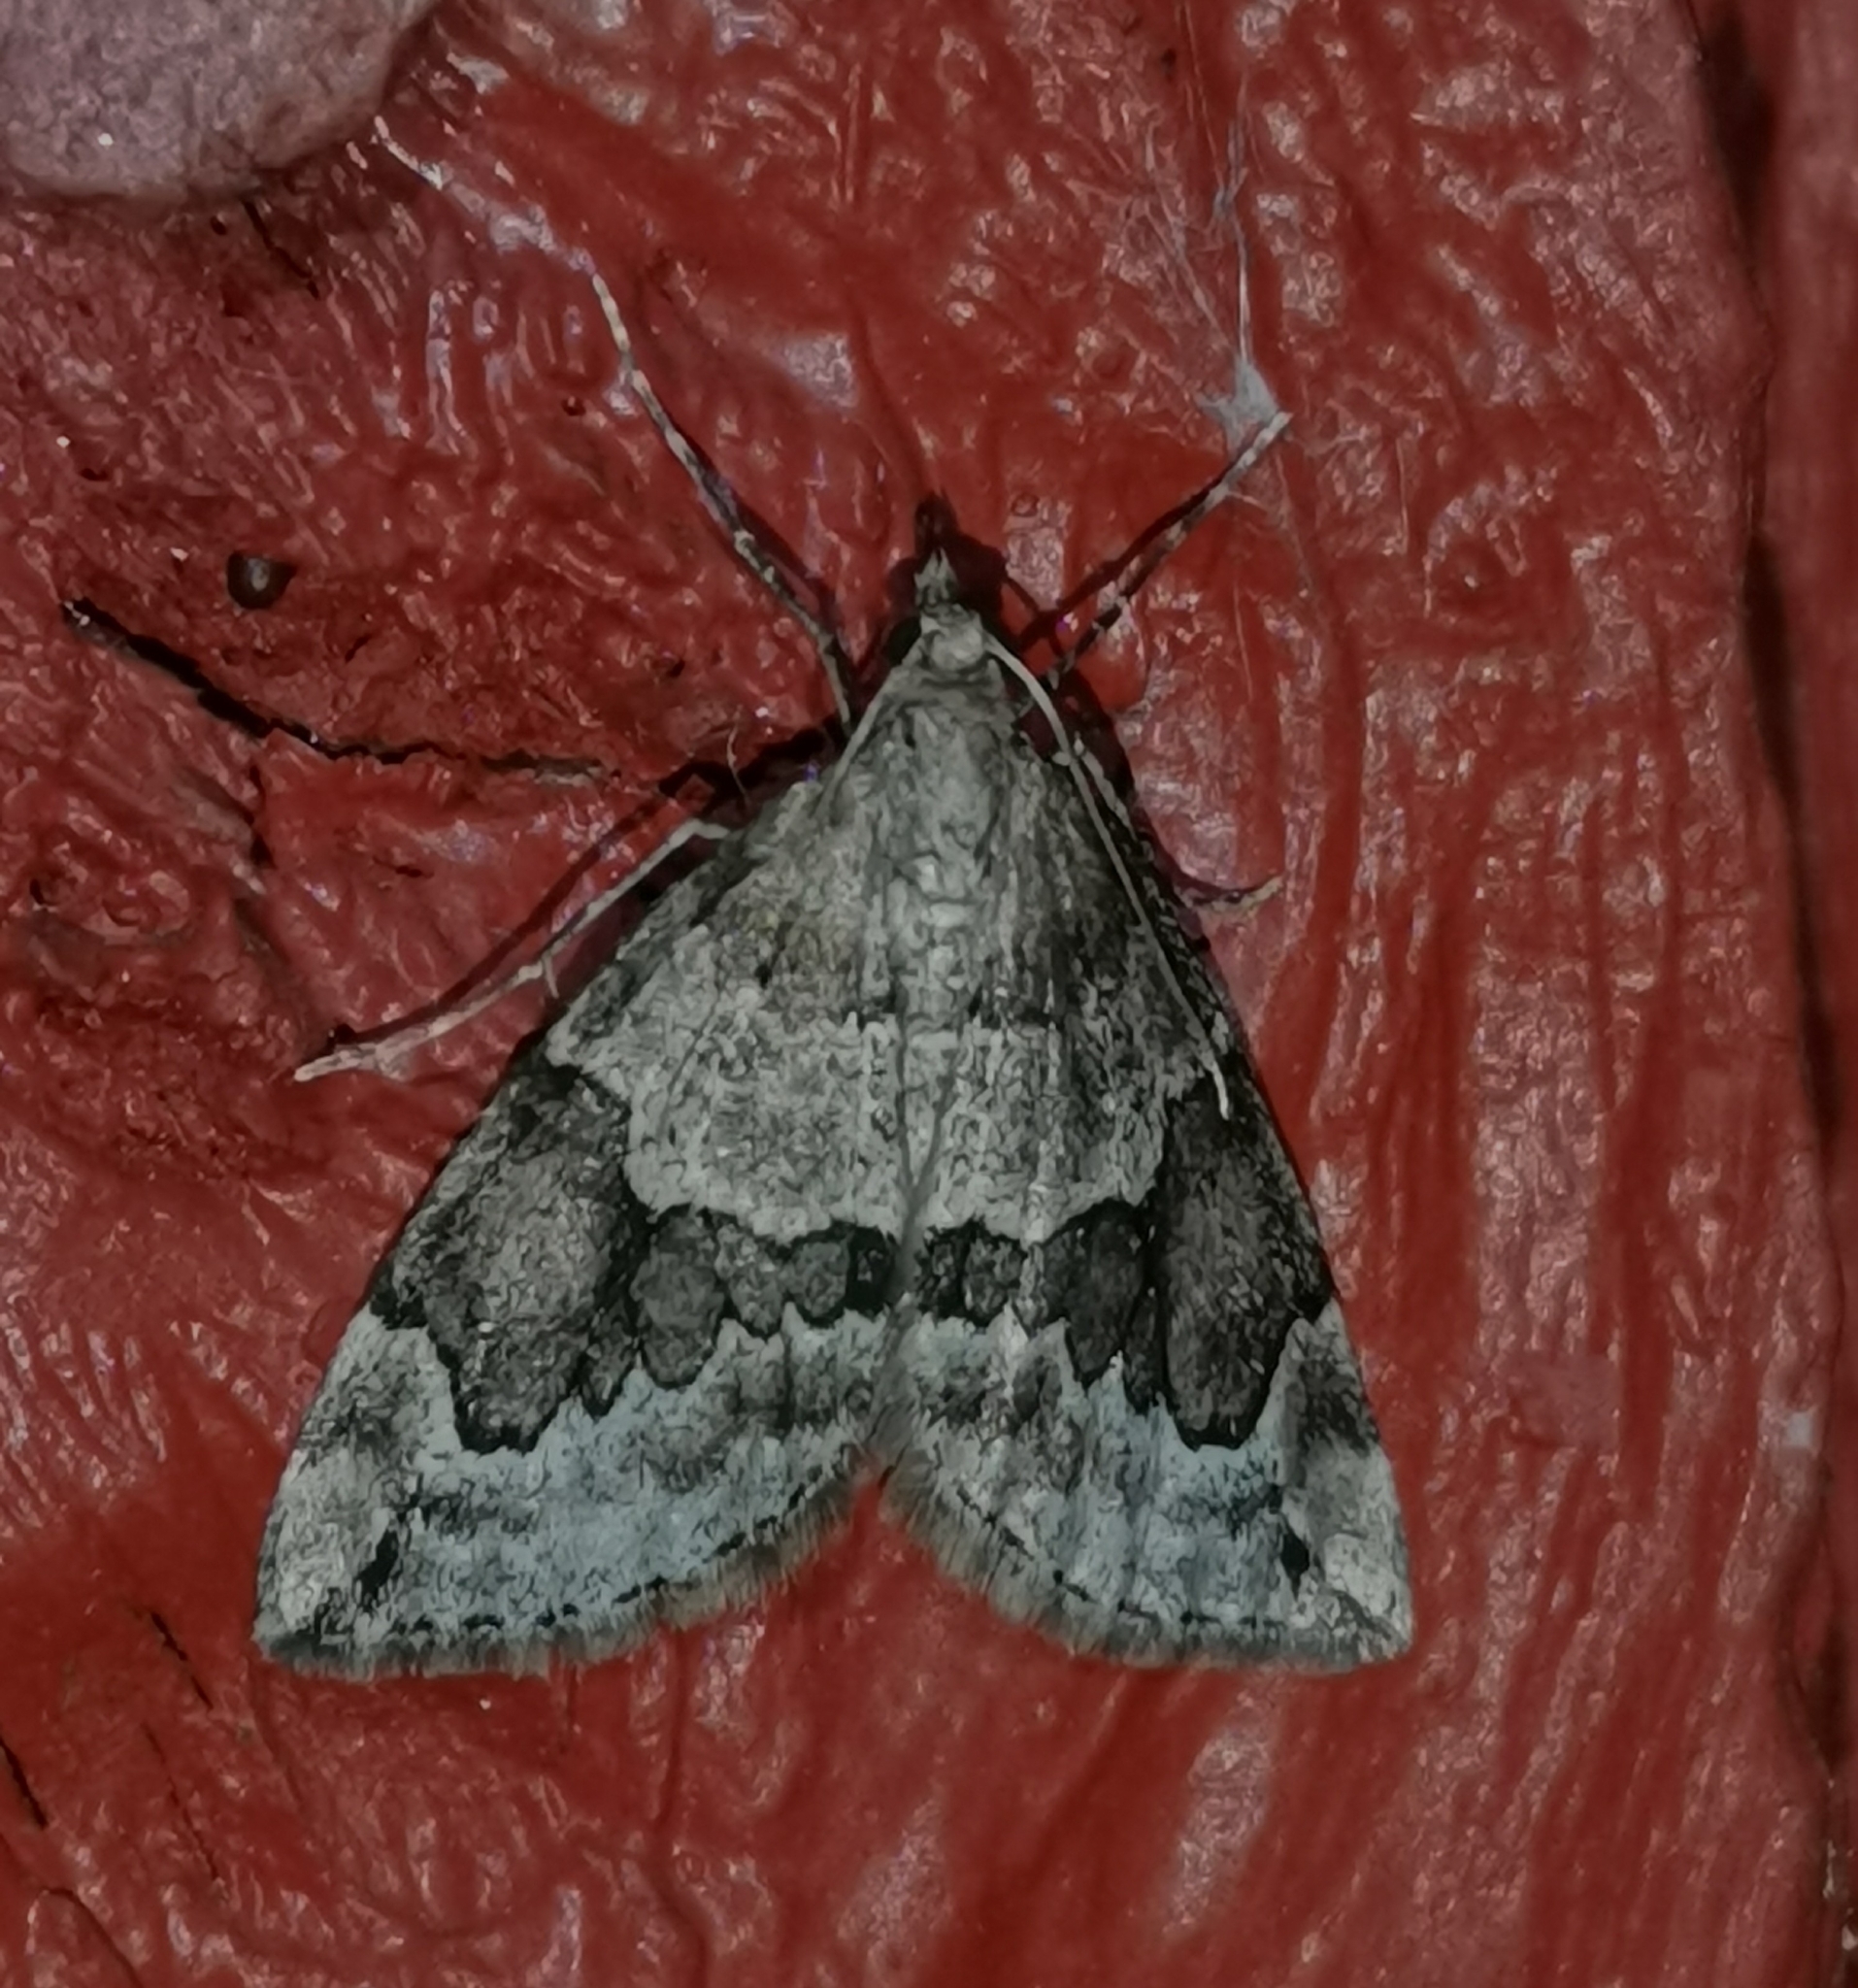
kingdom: Animalia
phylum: Arthropoda
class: Insecta
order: Lepidoptera
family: Geometridae
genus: Thera
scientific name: Thera juniperata
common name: Juniper carpet
